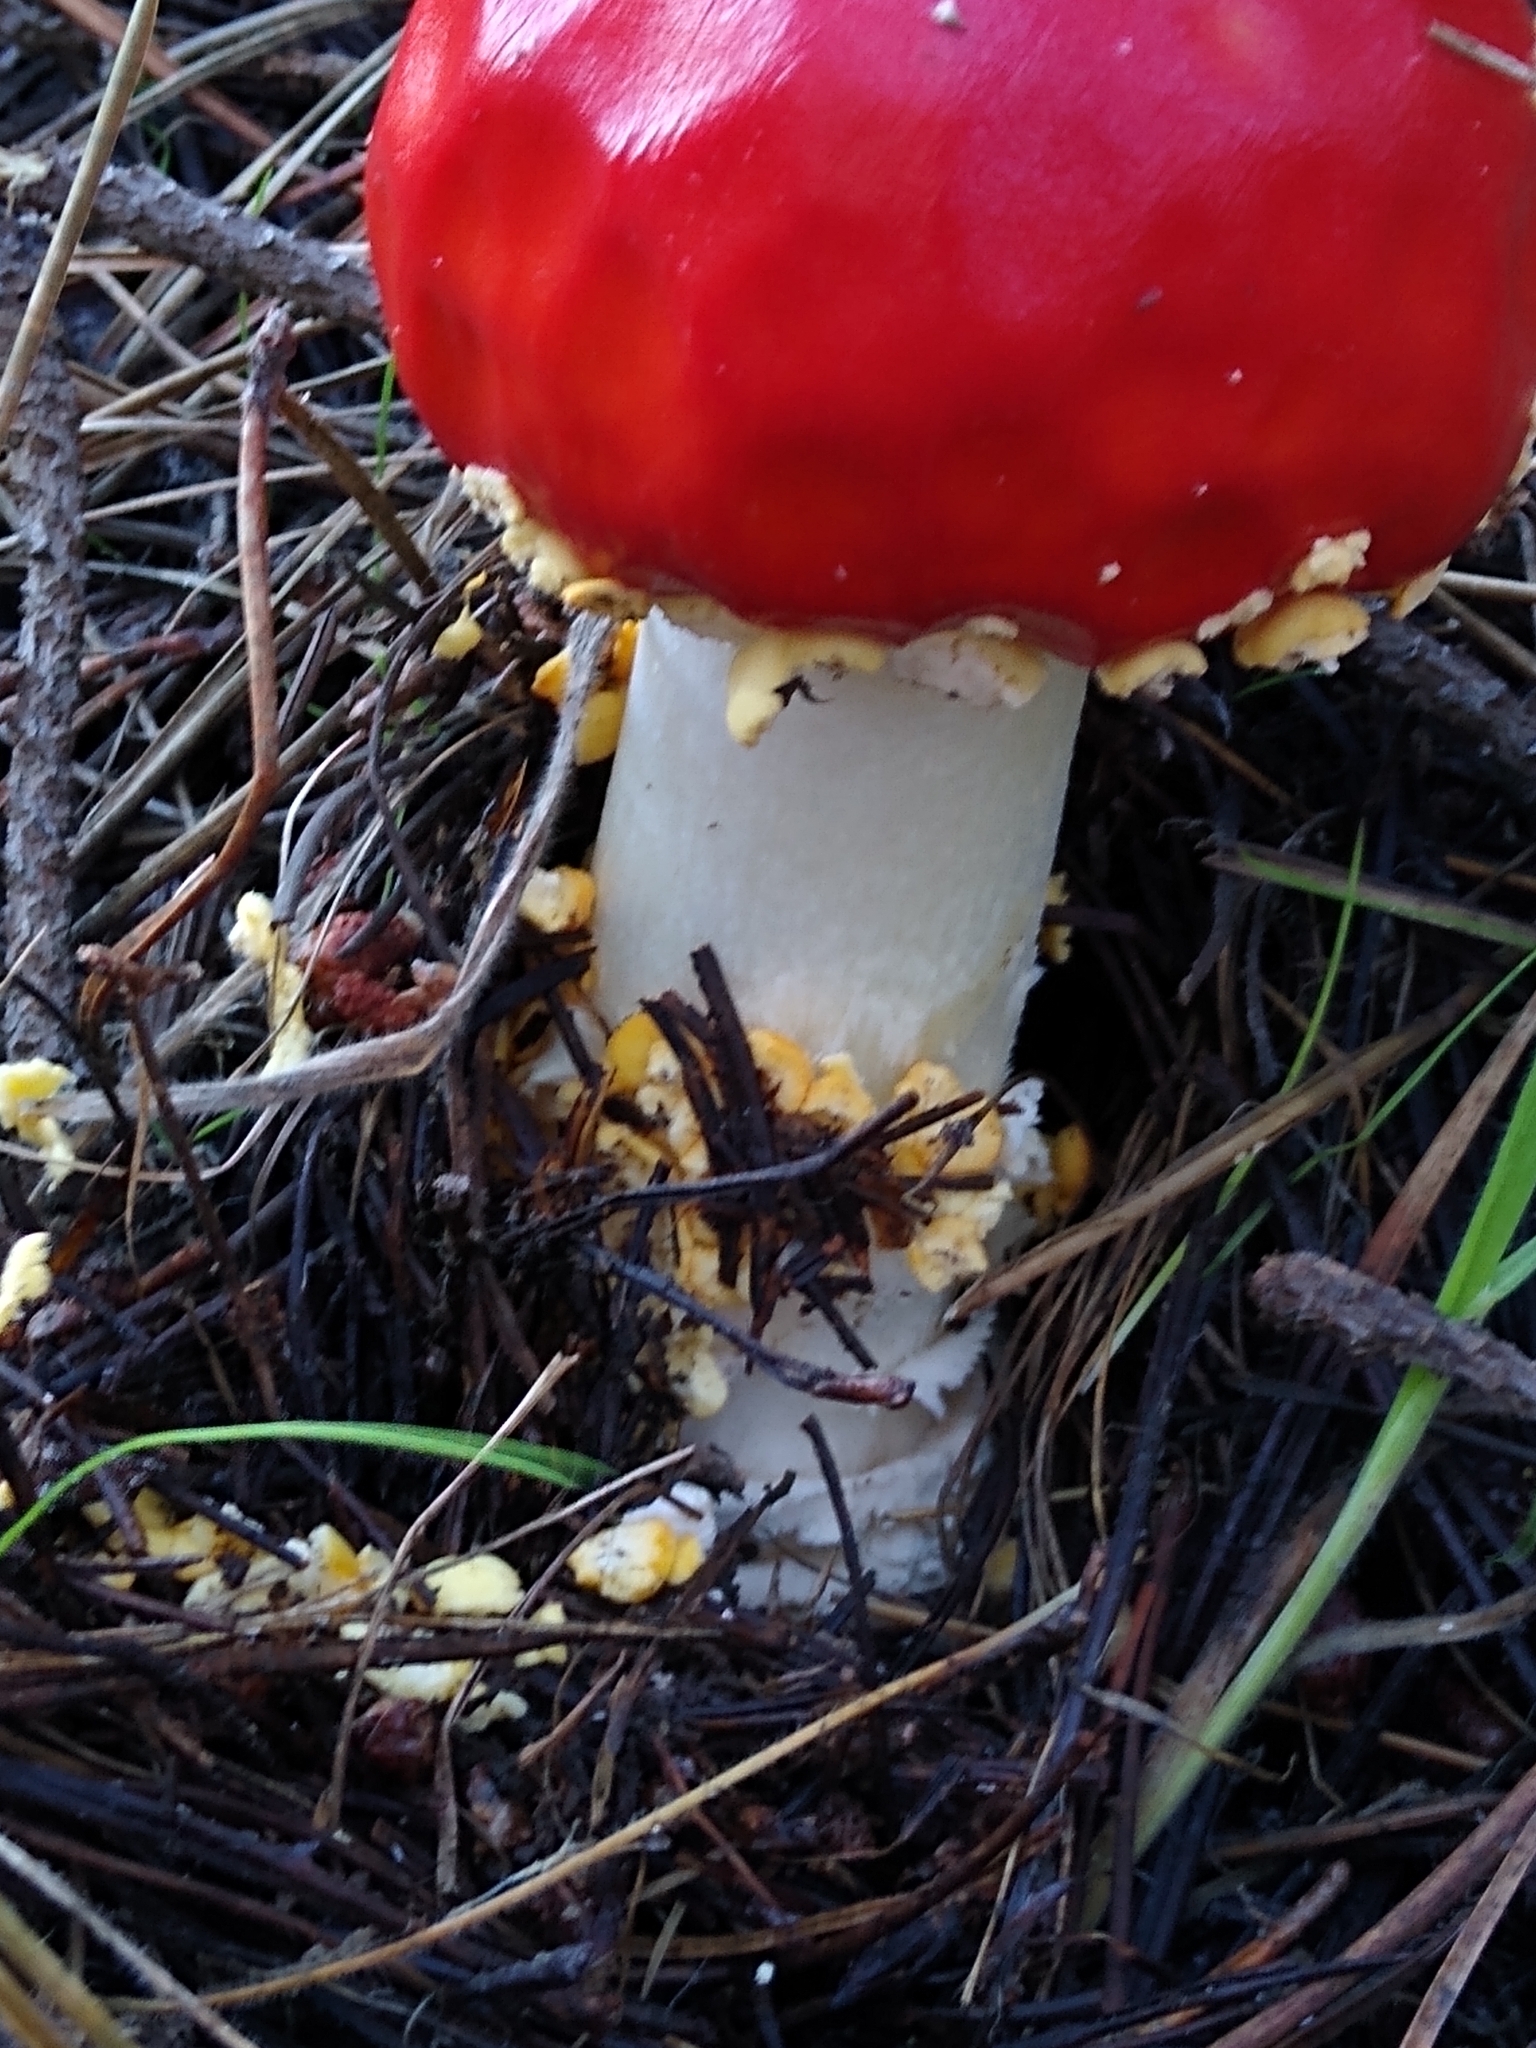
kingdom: Fungi
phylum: Basidiomycota
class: Agaricomycetes
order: Agaricales
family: Amanitaceae
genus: Amanita
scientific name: Amanita muscaria
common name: Fly agaric
